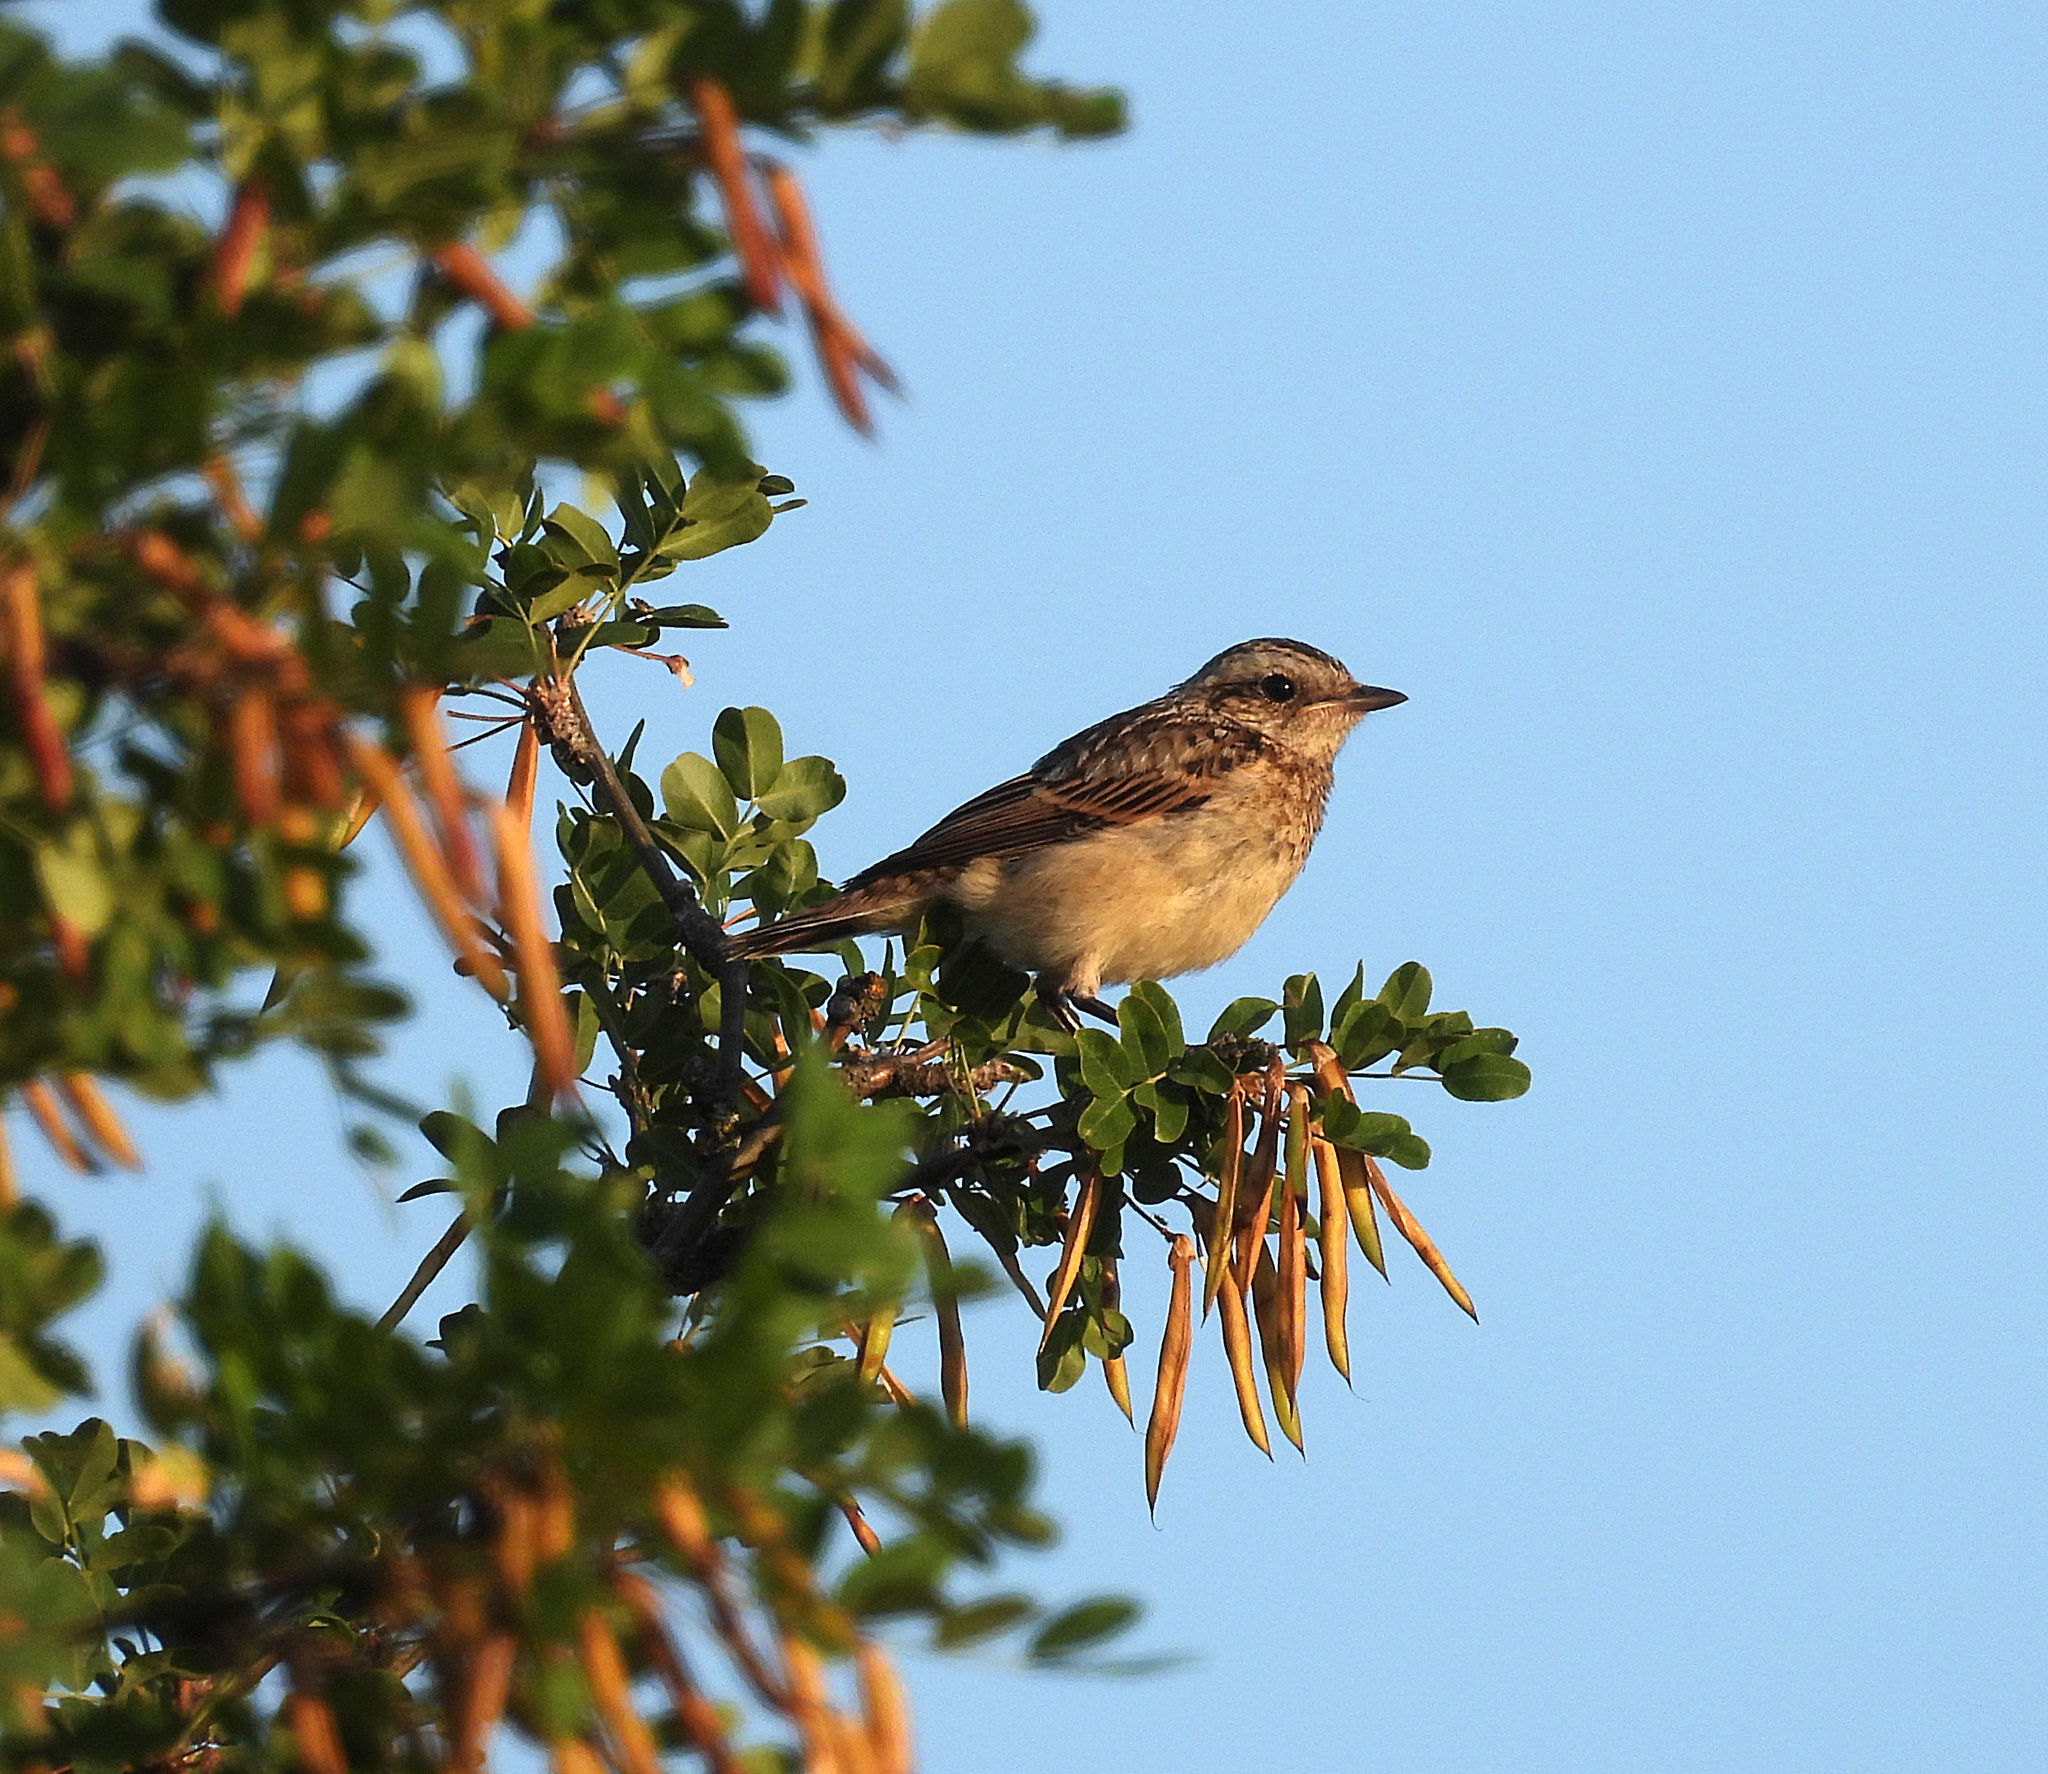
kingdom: Animalia
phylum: Chordata
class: Aves
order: Passeriformes
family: Muscicapidae
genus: Saxicola
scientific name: Saxicola rubetra
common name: Whinchat
